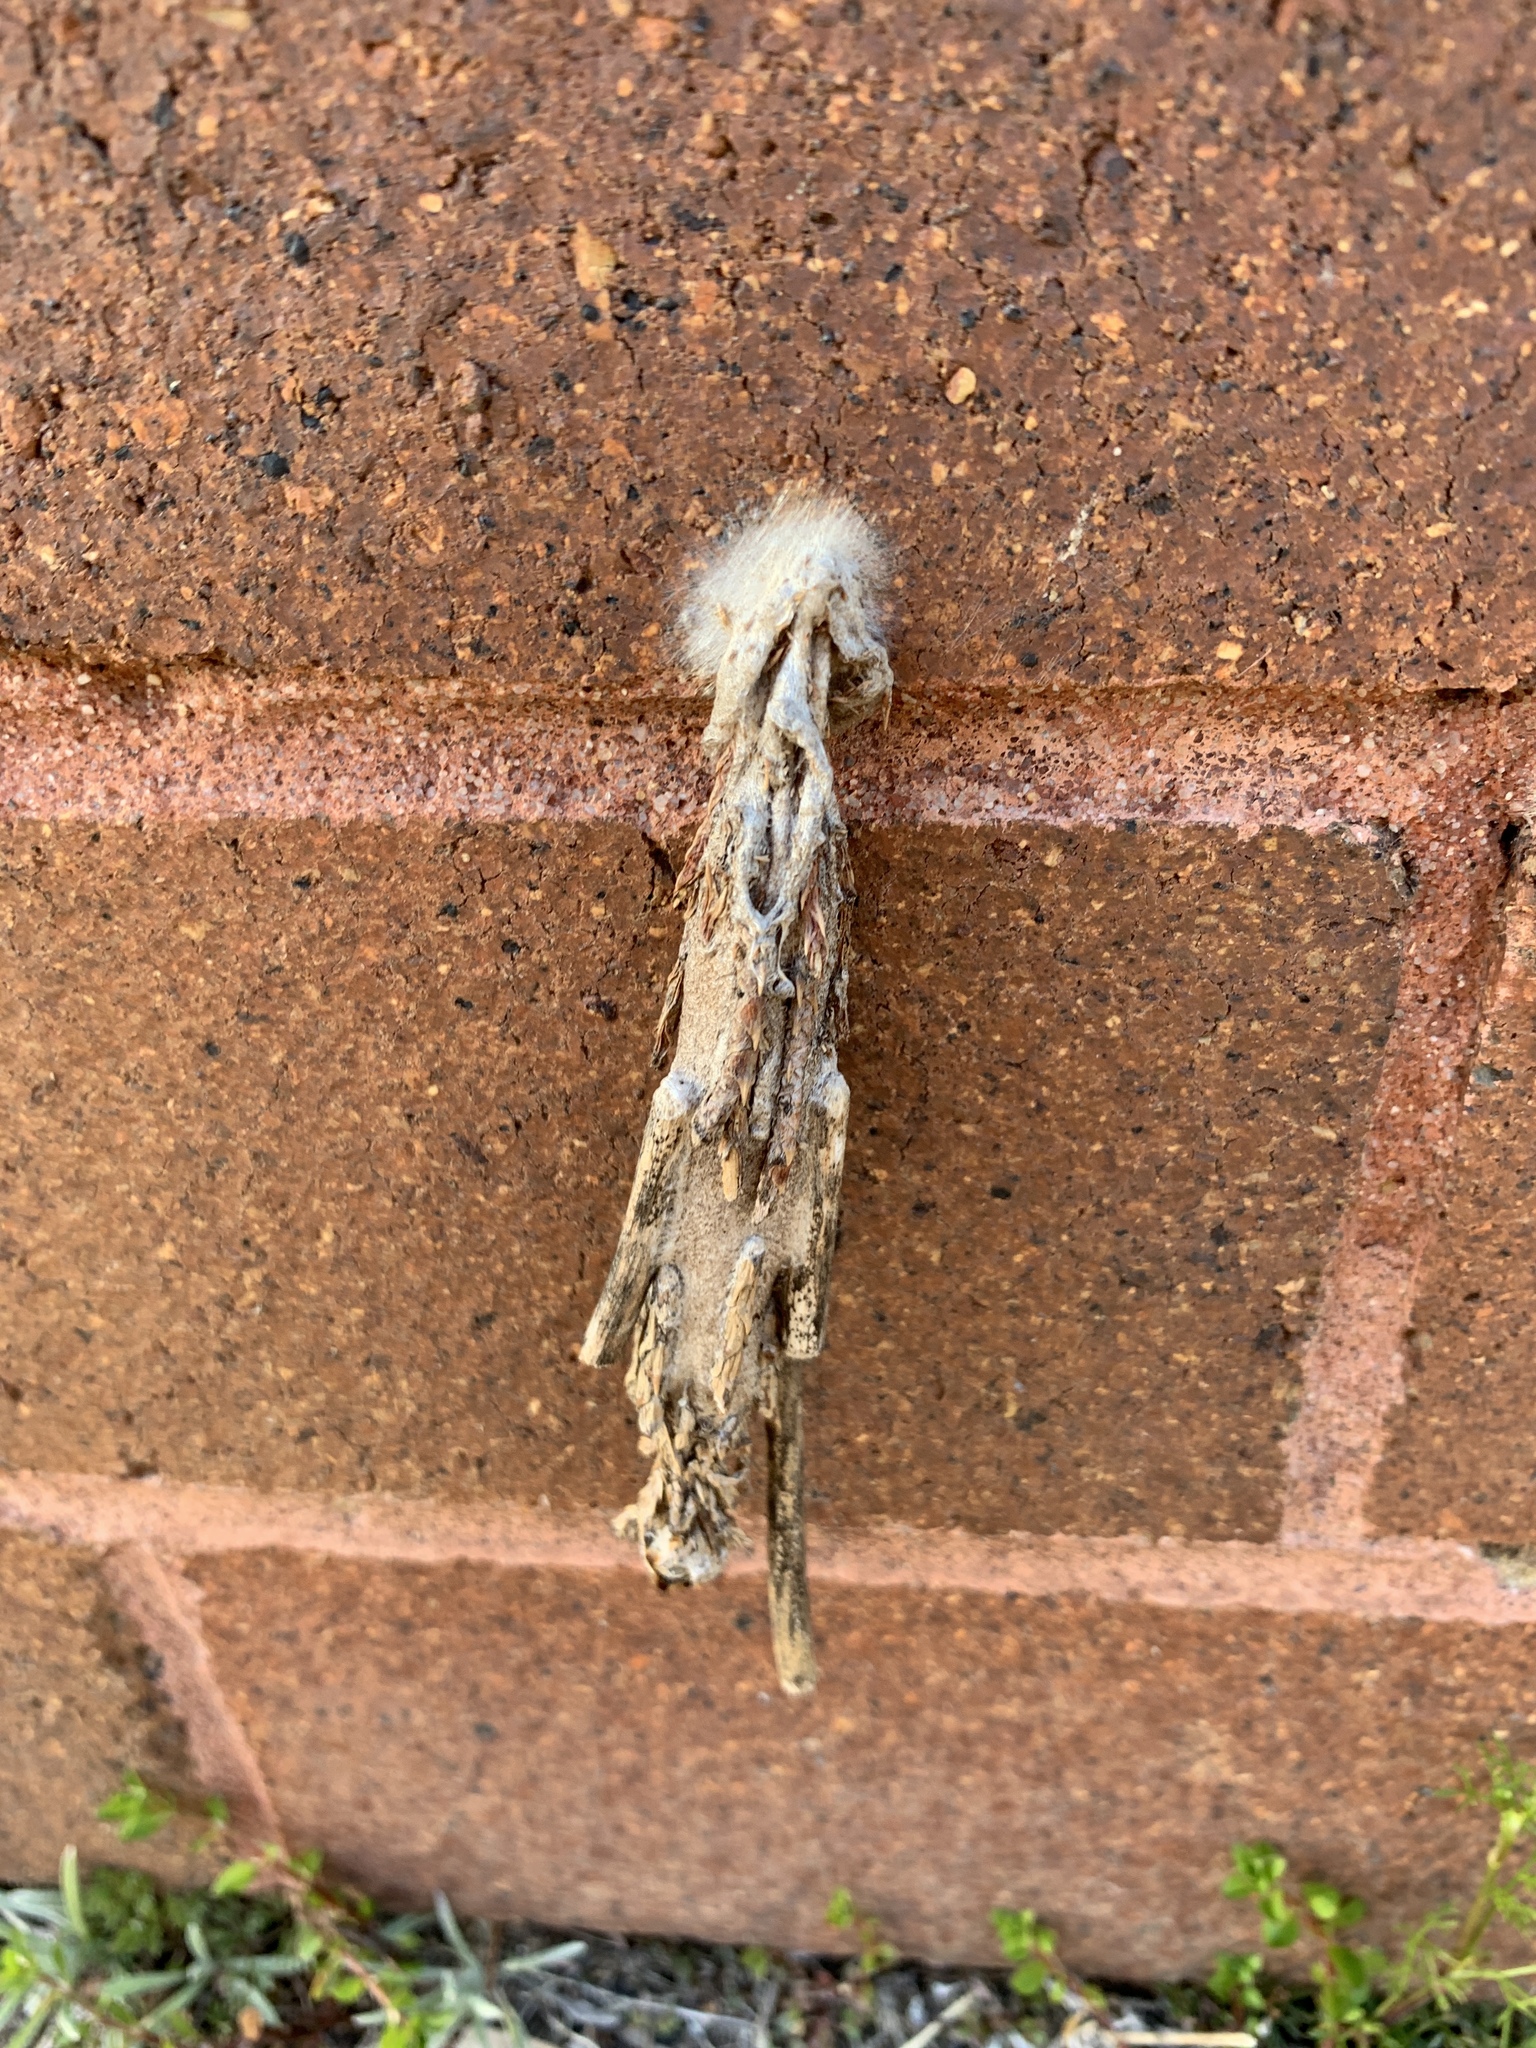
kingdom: Animalia
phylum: Arthropoda
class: Insecta
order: Lepidoptera
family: Psychidae
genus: Metura
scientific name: Metura elongatus
